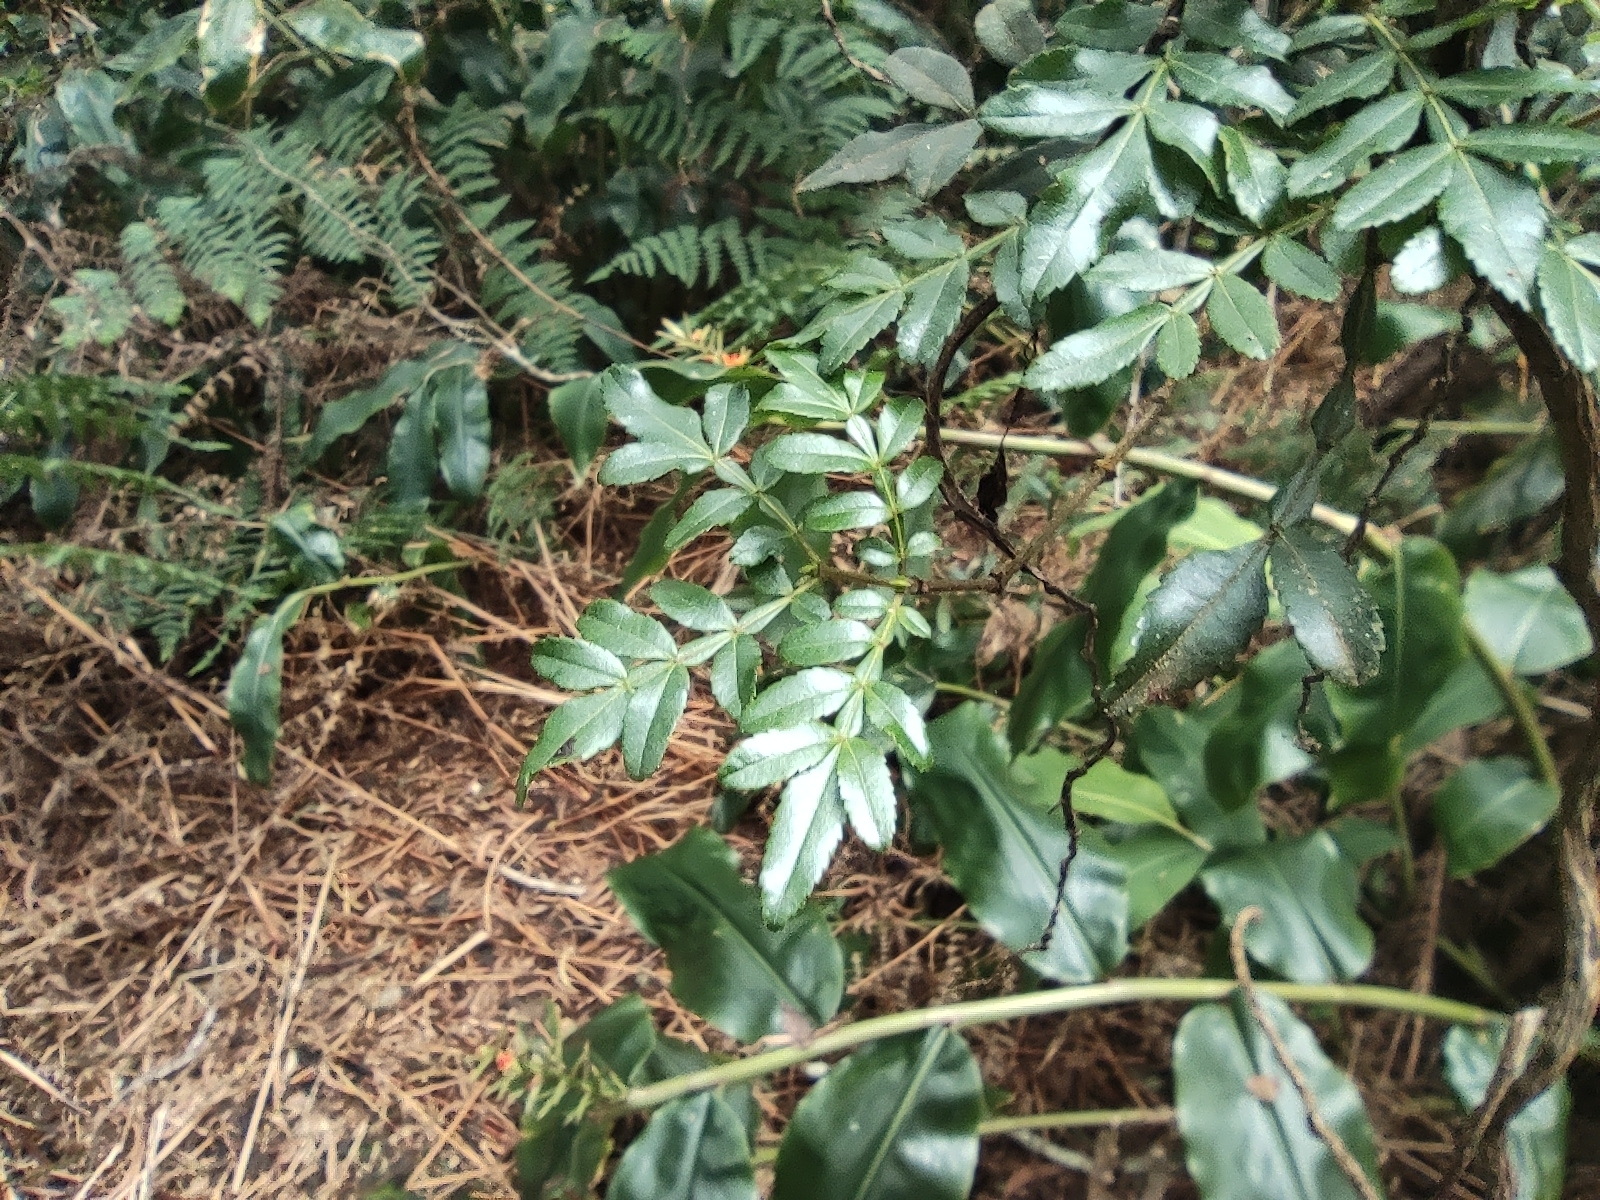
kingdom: Plantae
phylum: Tracheophyta
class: Magnoliopsida
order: Oxalidales
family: Cunoniaceae
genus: Weinmannia
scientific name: Weinmannia tinctoria
